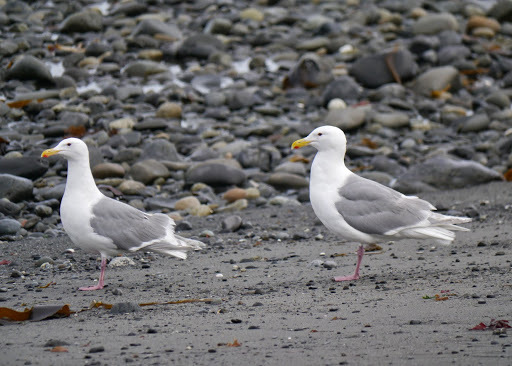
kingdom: Animalia
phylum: Chordata
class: Aves
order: Charadriiformes
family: Laridae
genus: Larus
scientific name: Larus glaucescens
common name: Glaucous-winged gull
